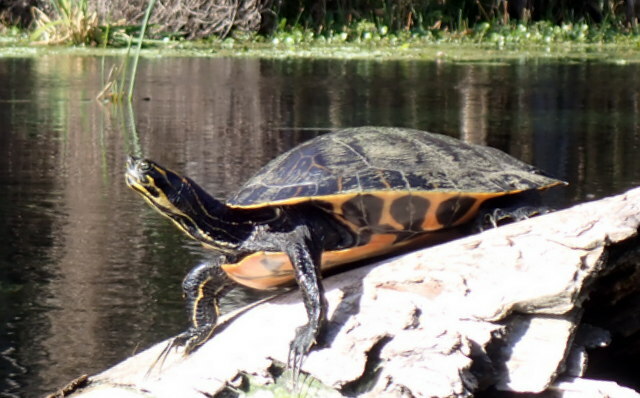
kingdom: Animalia
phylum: Chordata
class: Testudines
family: Emydidae
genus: Pseudemys
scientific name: Pseudemys concinna
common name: Eastern river cooter
